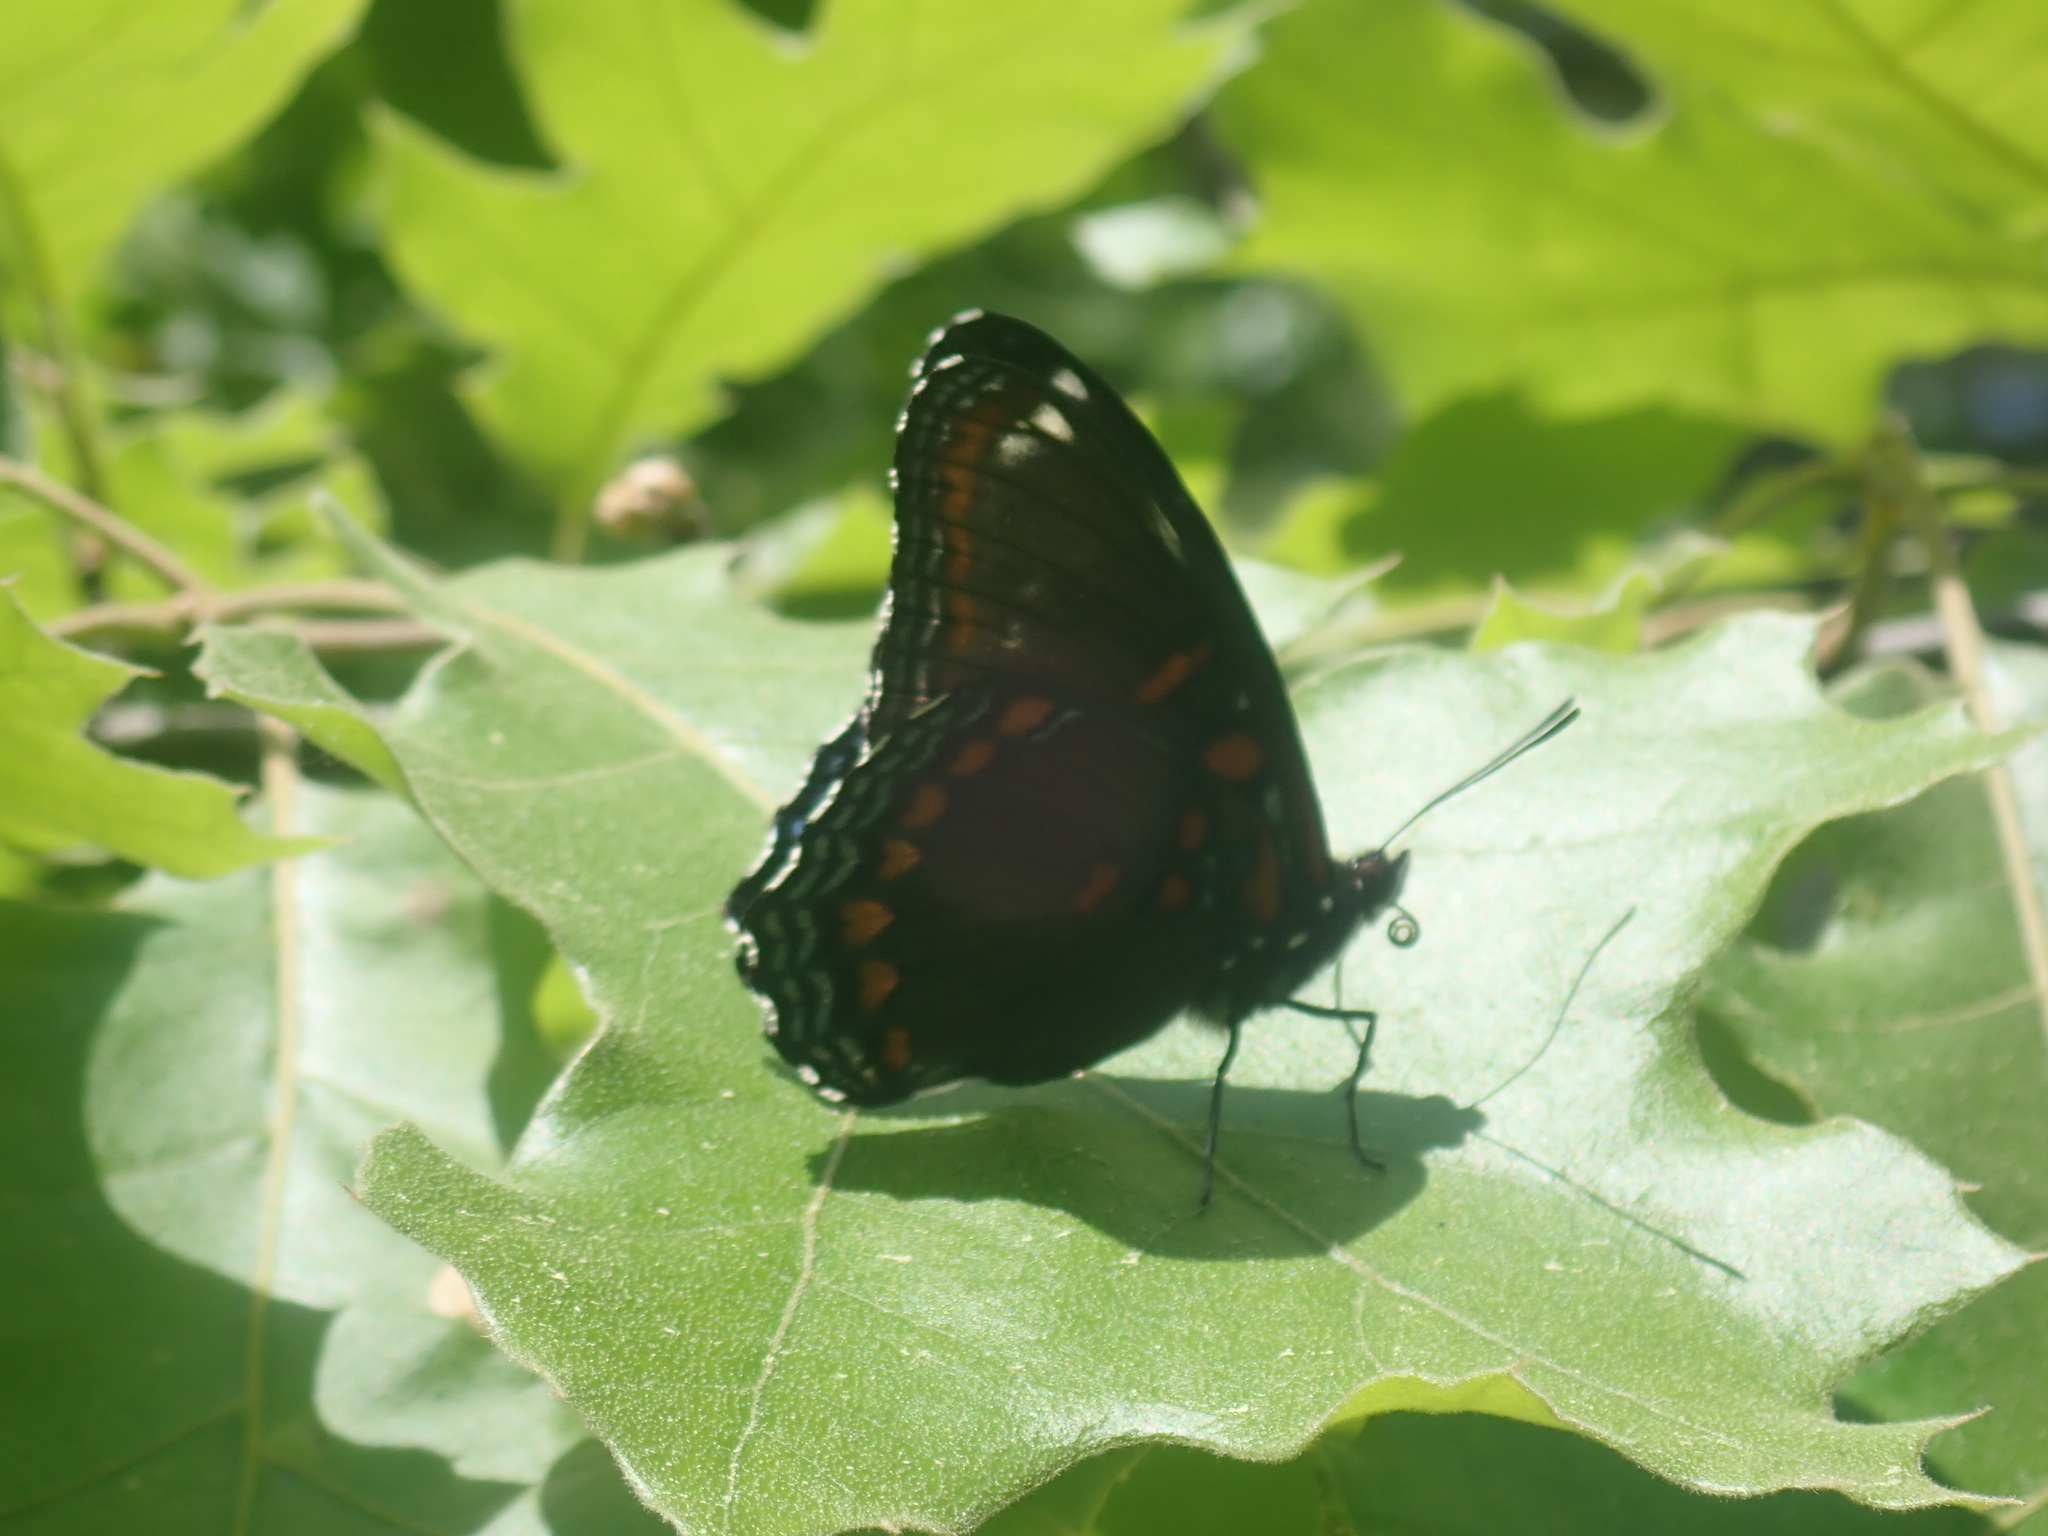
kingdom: Animalia
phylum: Arthropoda
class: Insecta
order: Lepidoptera
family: Nymphalidae
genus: Limenitis
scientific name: Limenitis arthemis
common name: Red-spotted admiral
